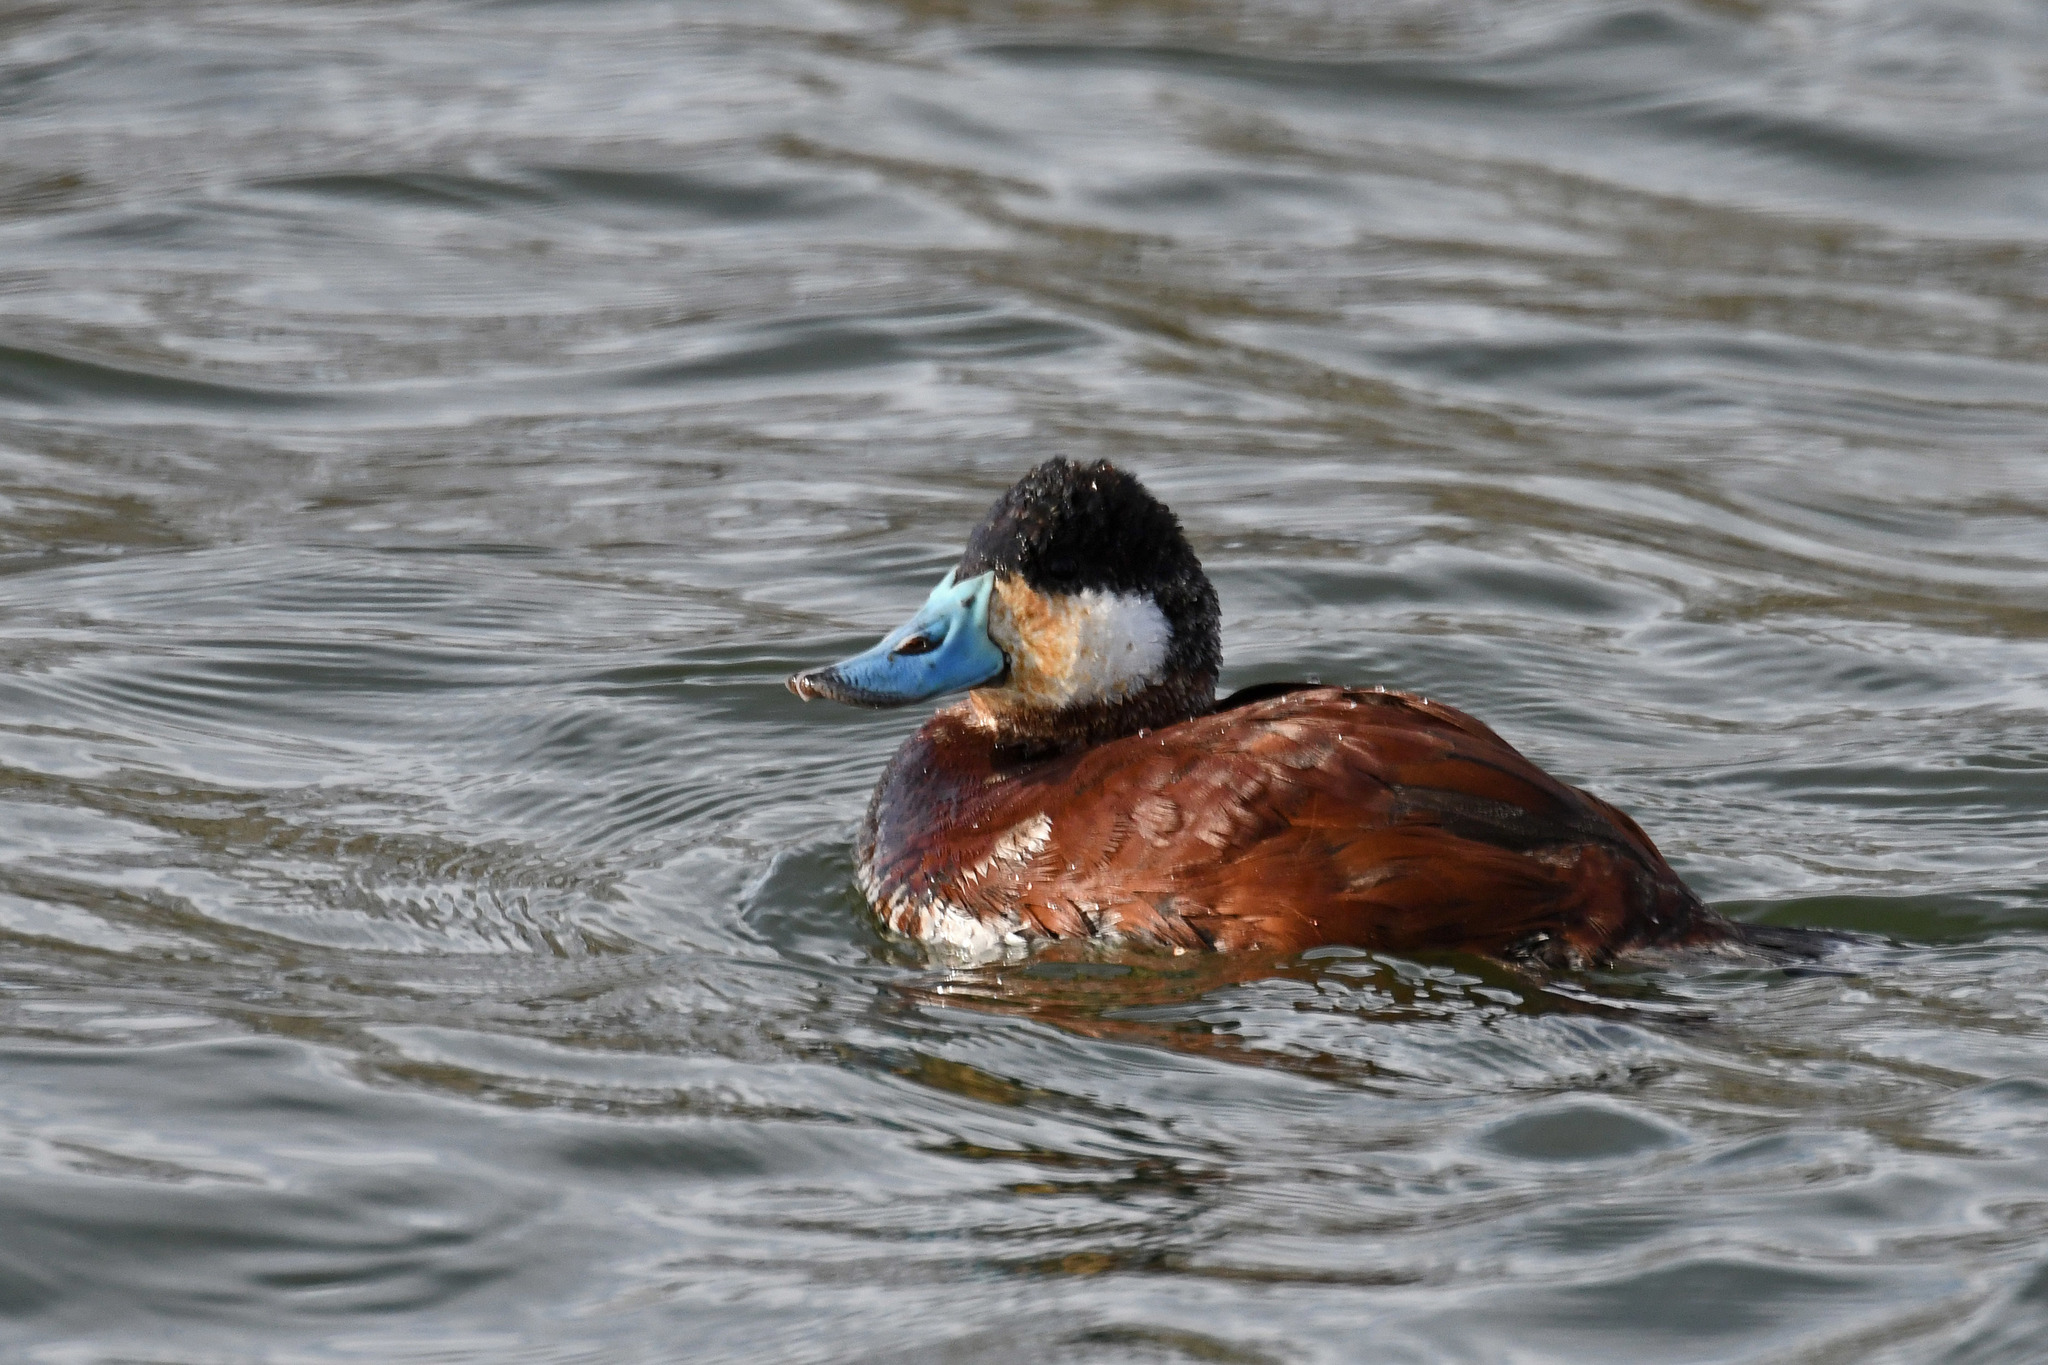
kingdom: Animalia
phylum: Chordata
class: Aves
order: Anseriformes
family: Anatidae
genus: Oxyura
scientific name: Oxyura jamaicensis
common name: Ruddy duck
